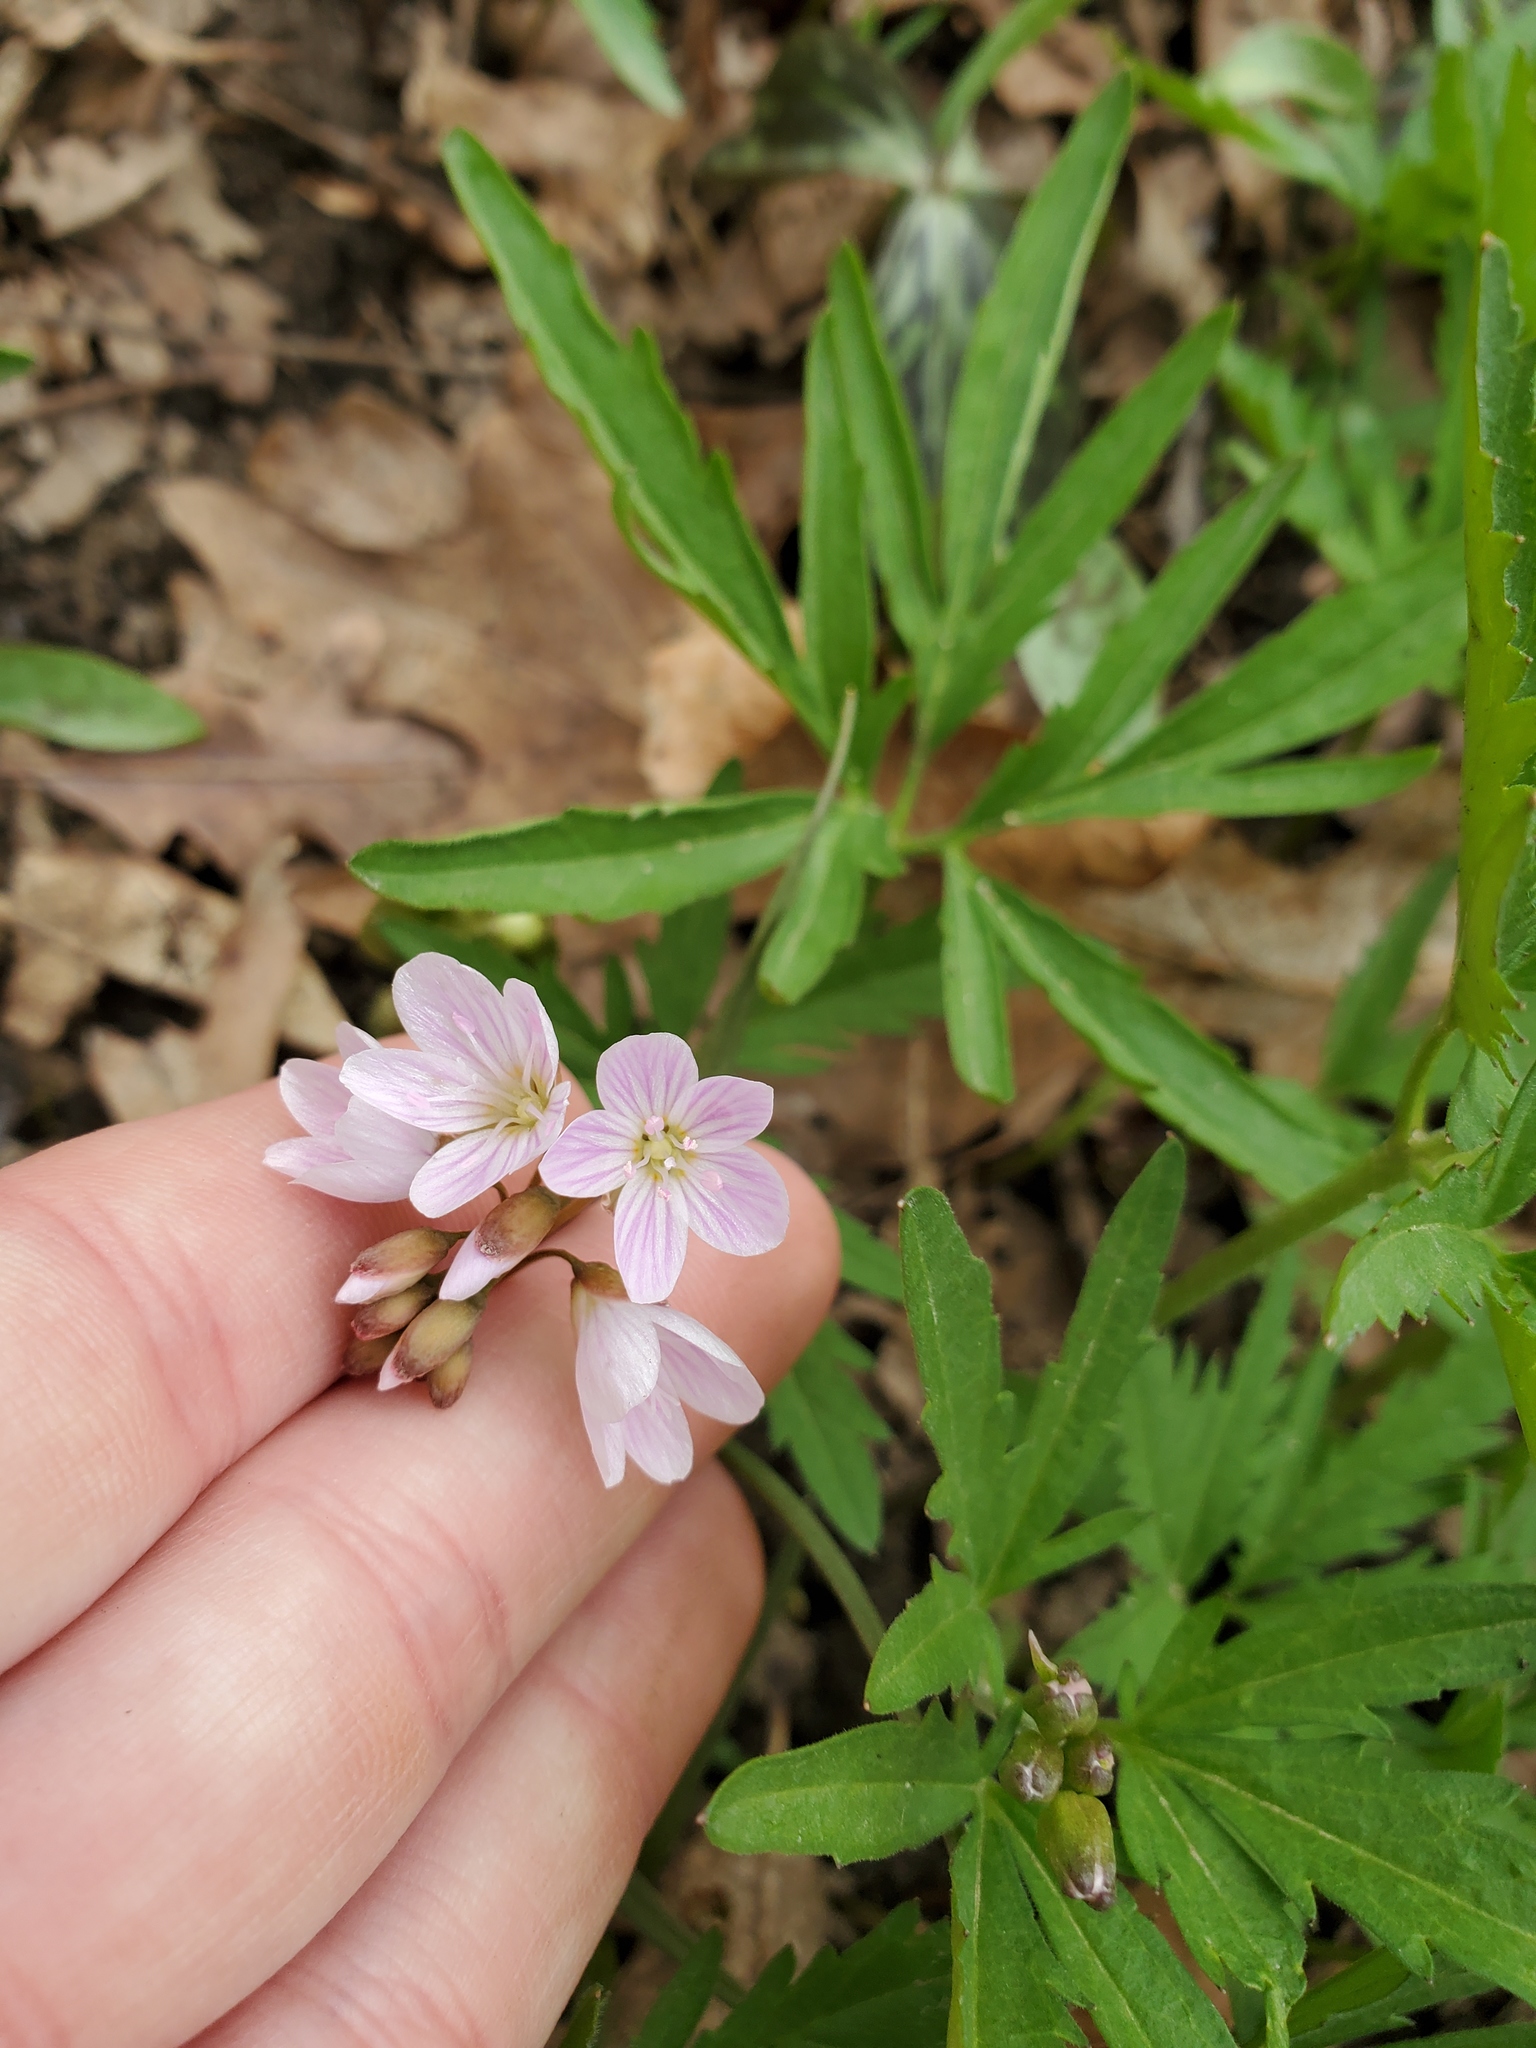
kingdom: Plantae
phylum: Tracheophyta
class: Magnoliopsida
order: Caryophyllales
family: Montiaceae
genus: Claytonia
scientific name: Claytonia virginica
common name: Virginia springbeauty
